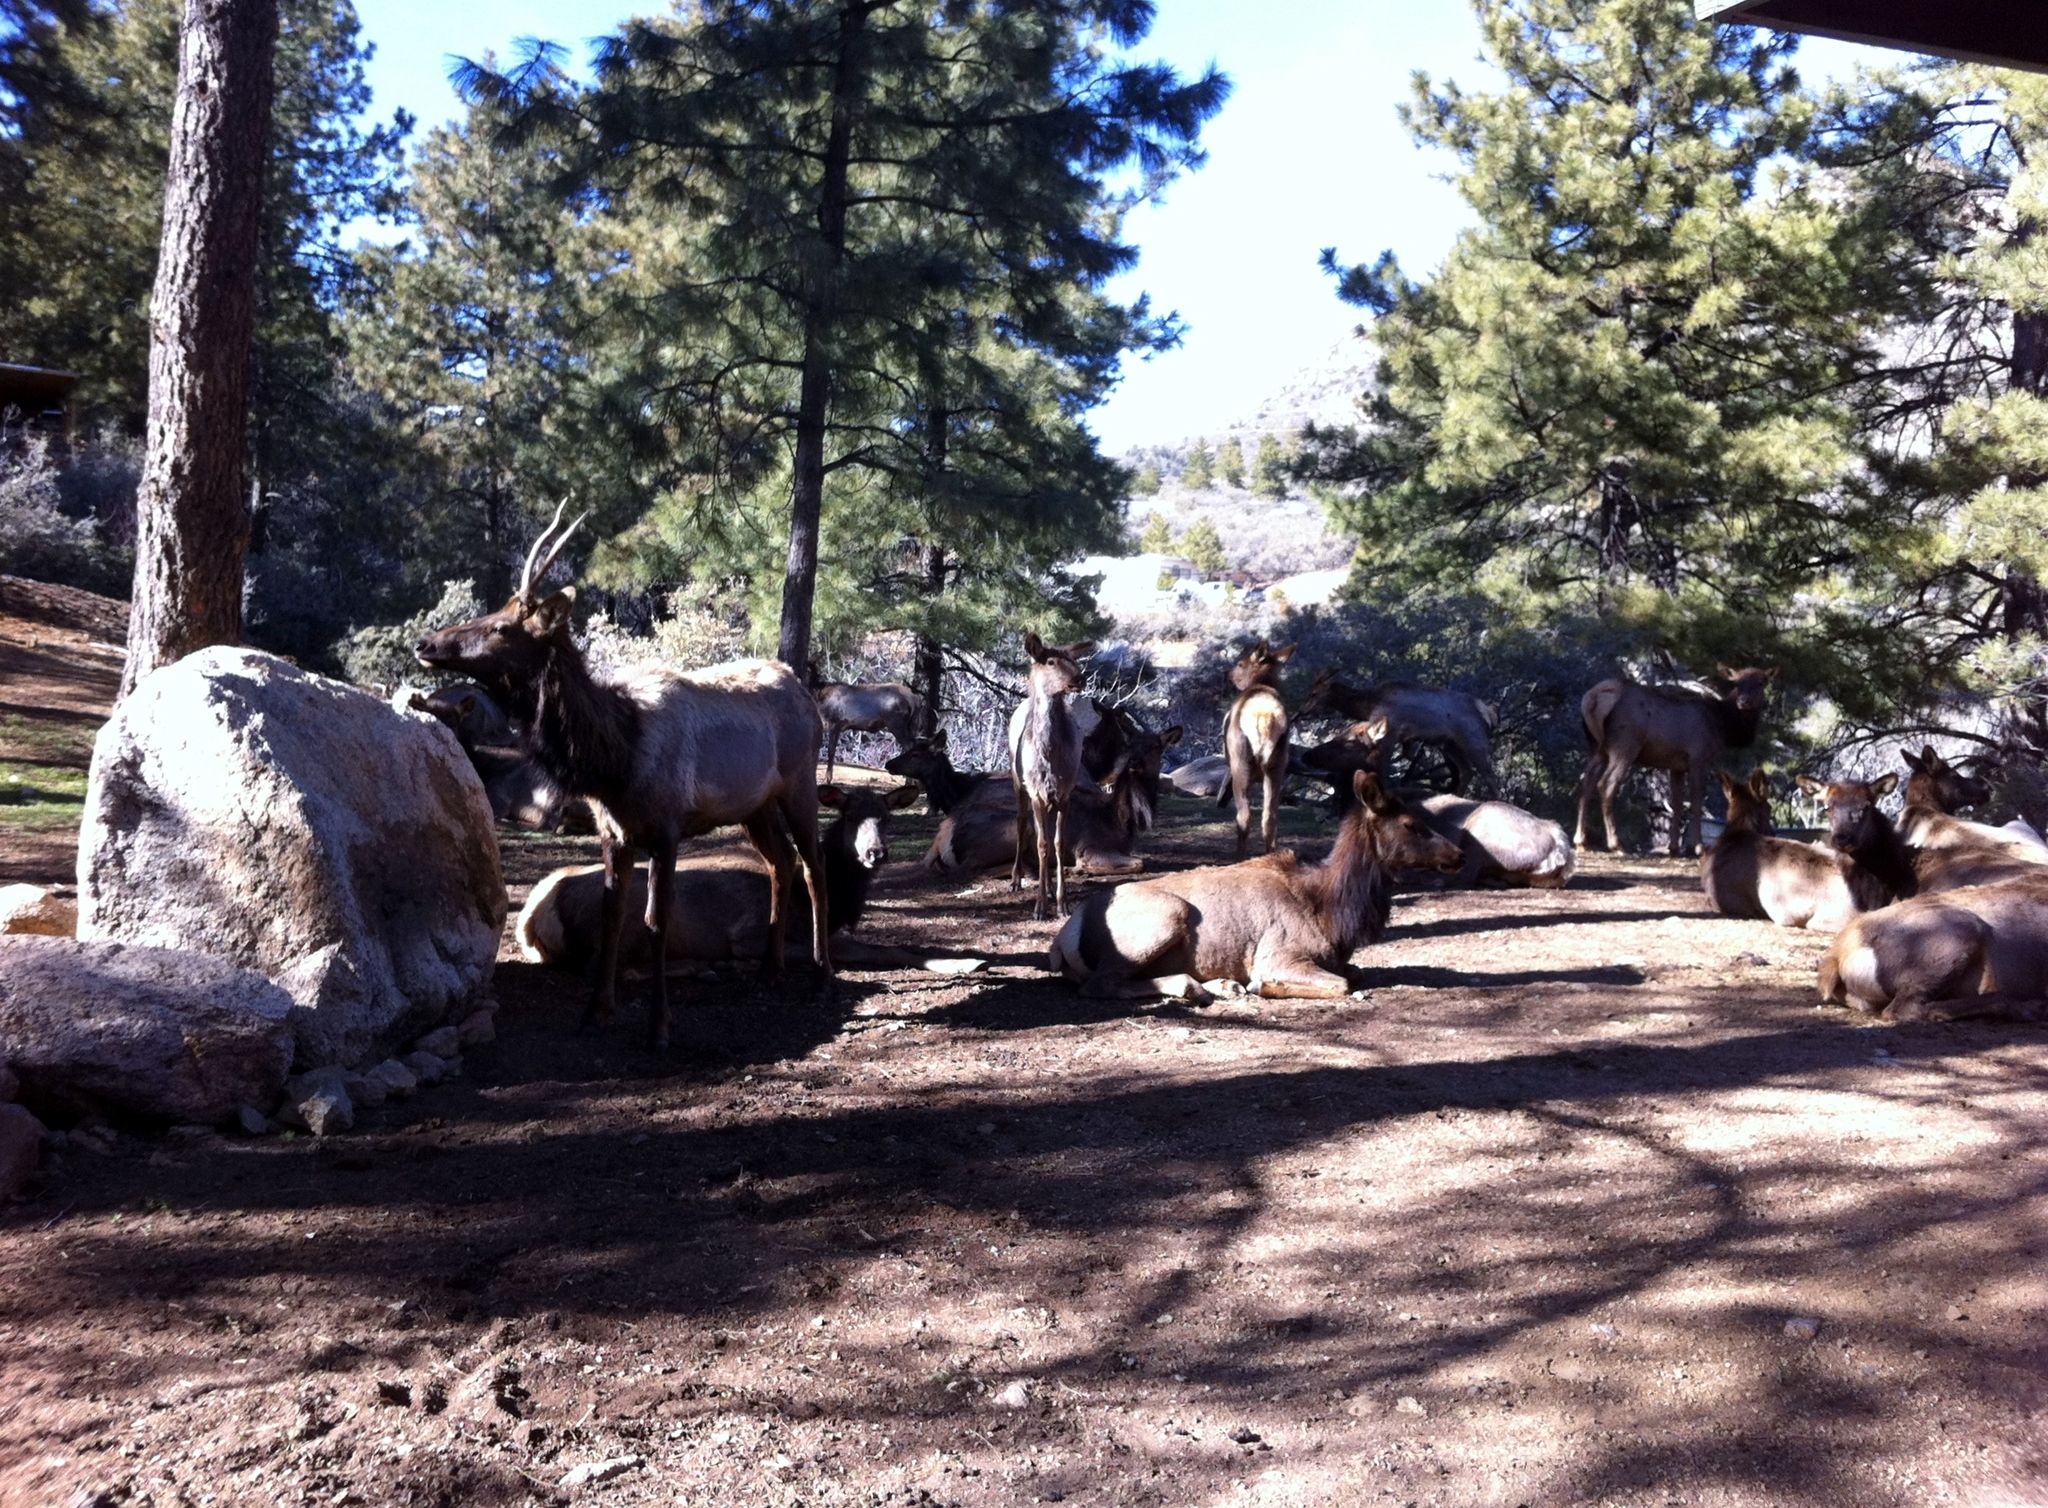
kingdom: Animalia
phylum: Chordata
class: Mammalia
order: Artiodactyla
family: Cervidae
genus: Cervus
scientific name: Cervus elaphus
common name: Red deer
